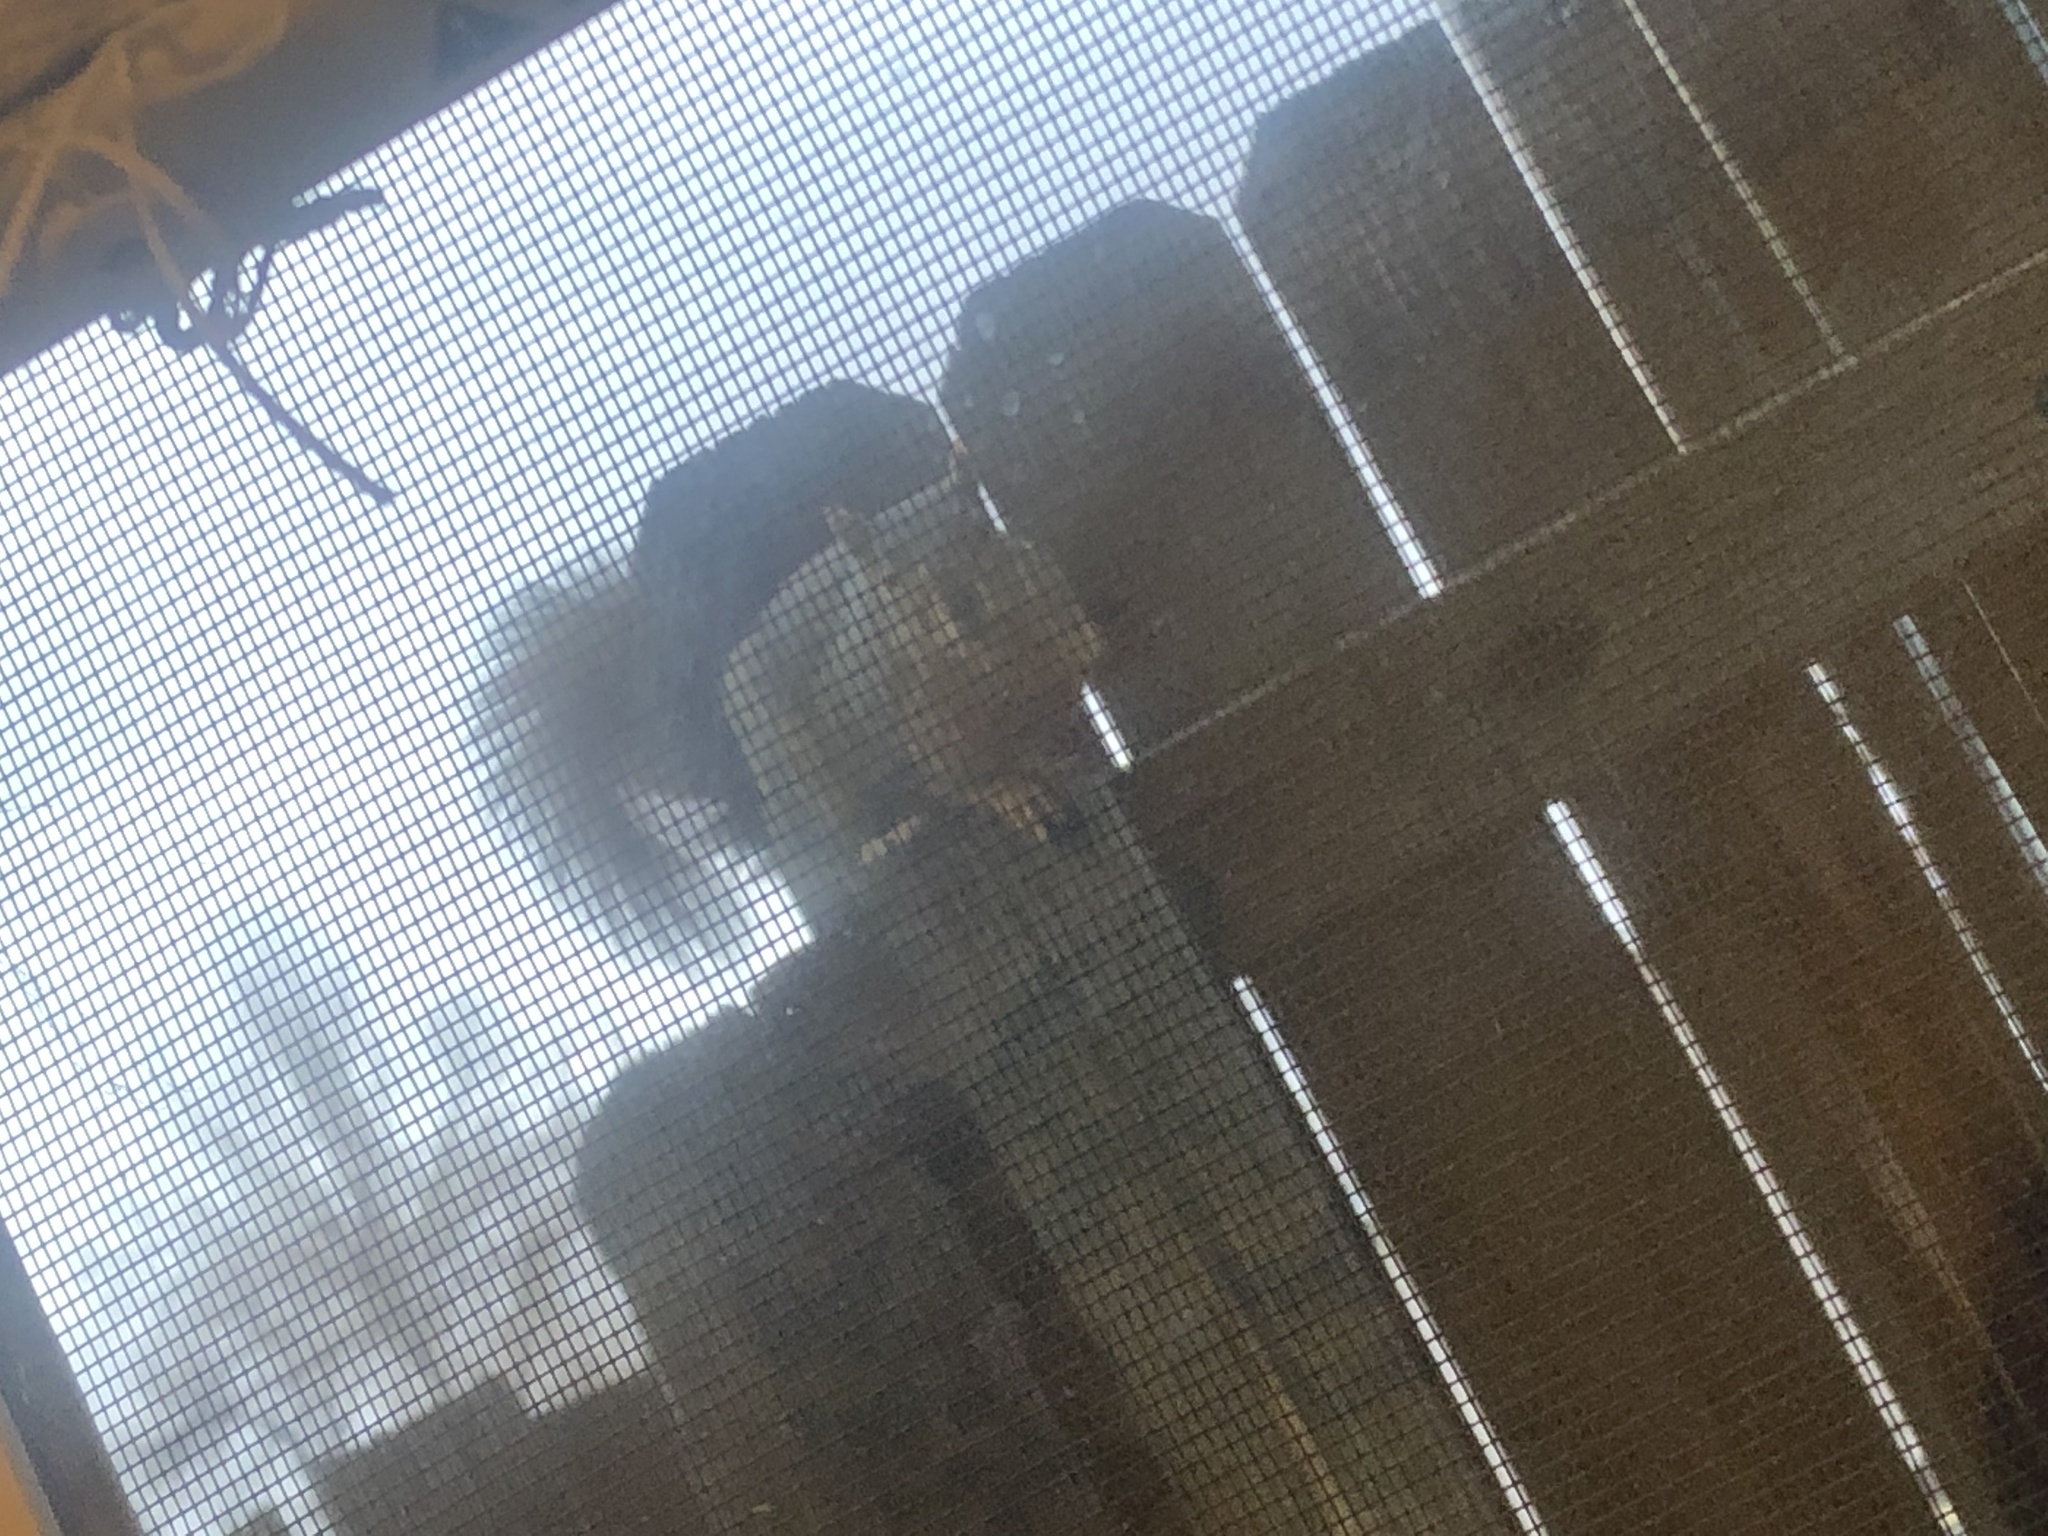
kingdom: Animalia
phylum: Chordata
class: Mammalia
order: Rodentia
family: Sciuridae
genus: Sciurus
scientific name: Sciurus niger
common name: Fox squirrel
